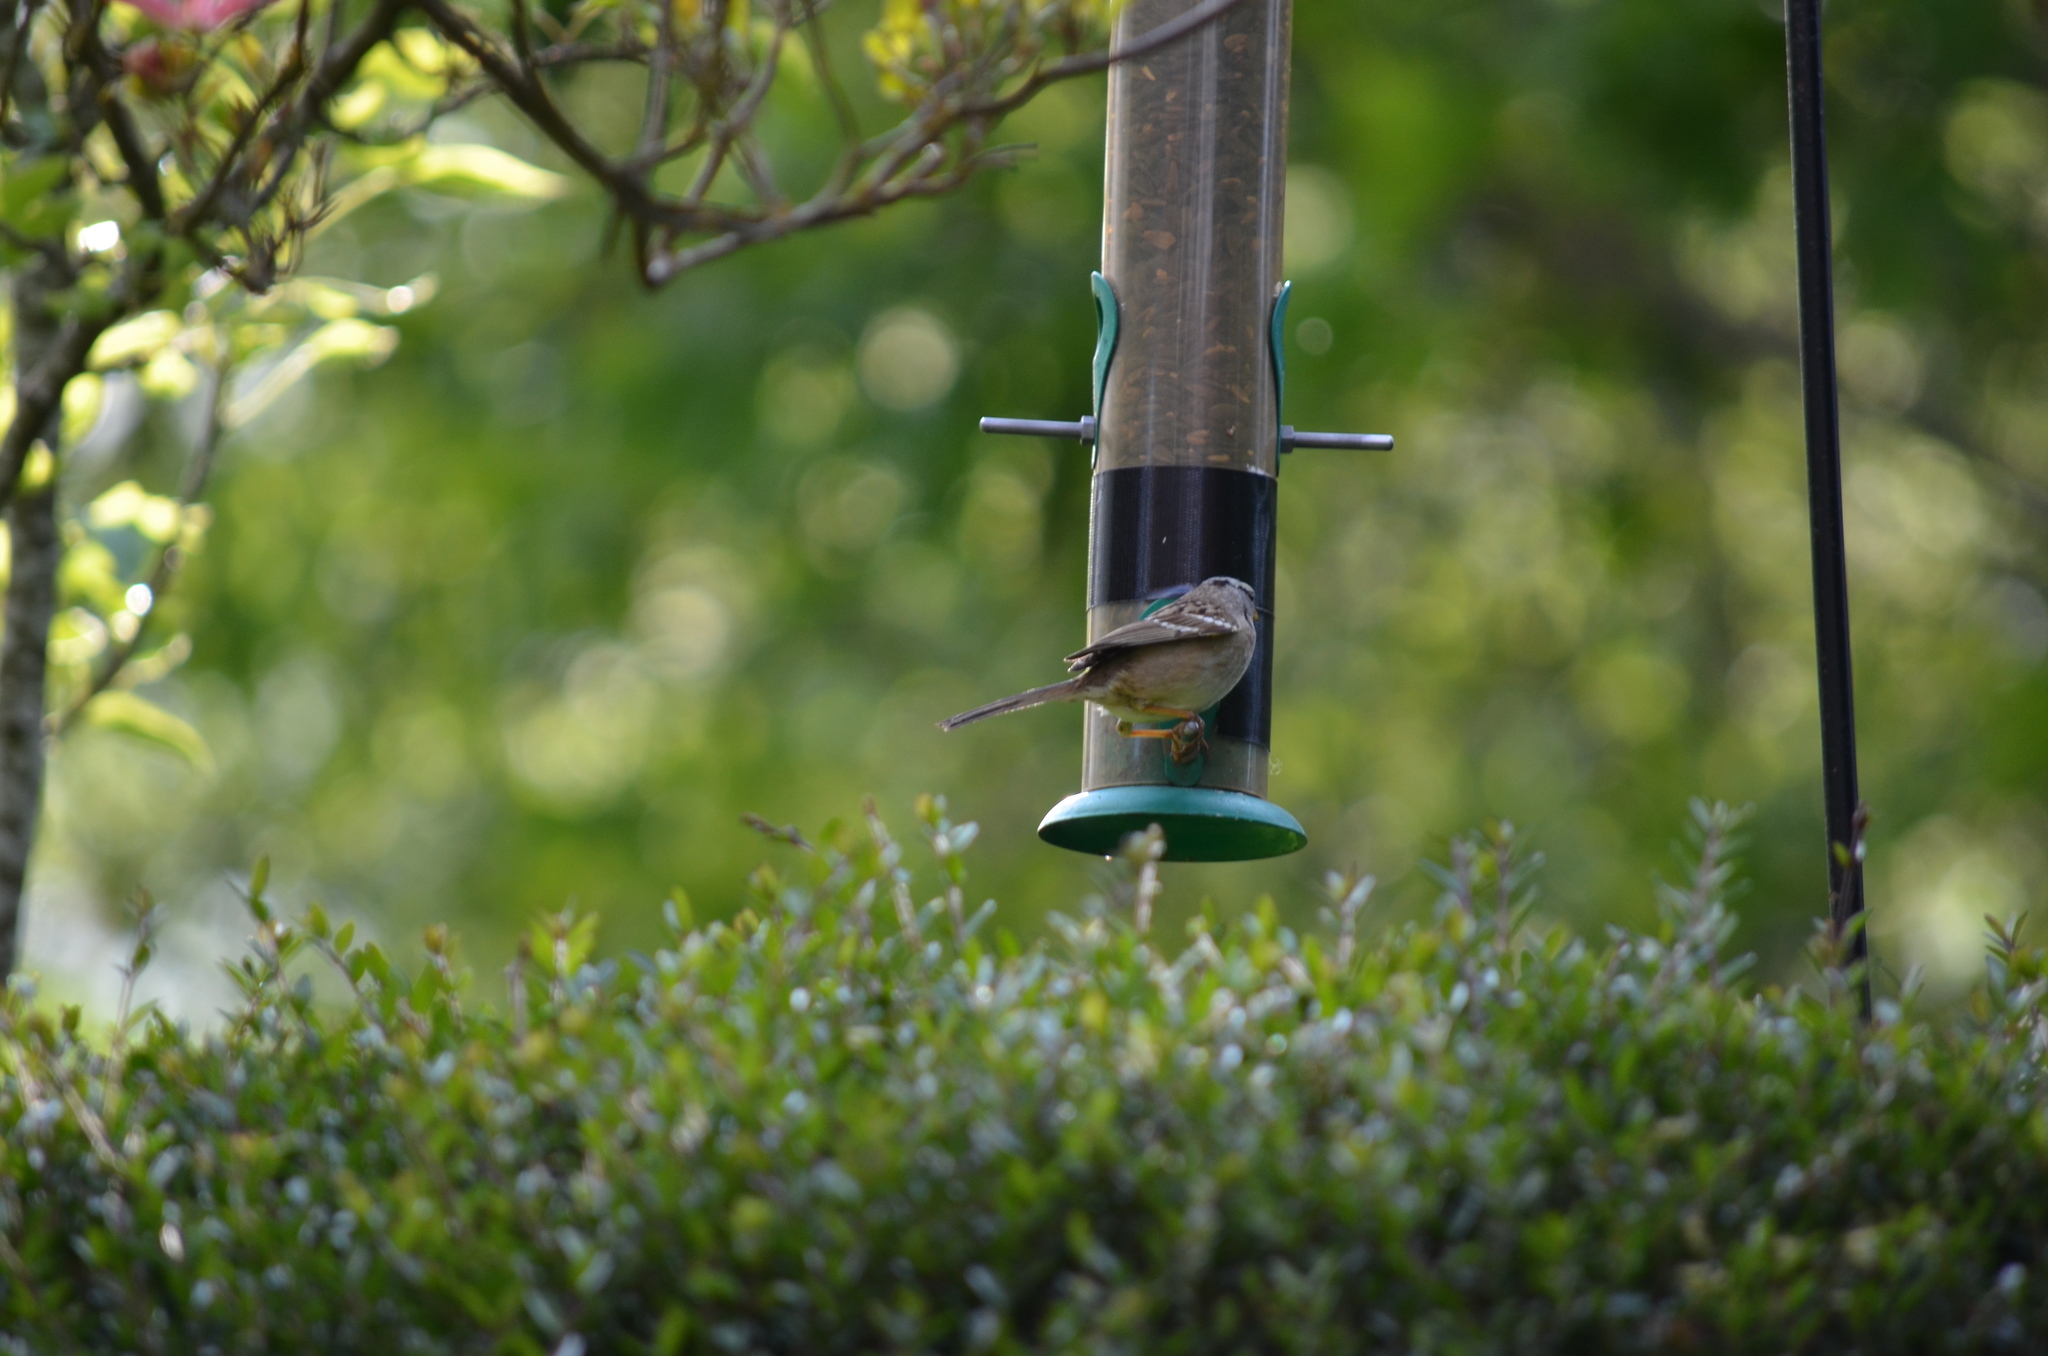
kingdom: Animalia
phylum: Chordata
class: Aves
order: Passeriformes
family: Passerellidae
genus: Zonotrichia
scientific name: Zonotrichia leucophrys
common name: White-crowned sparrow
